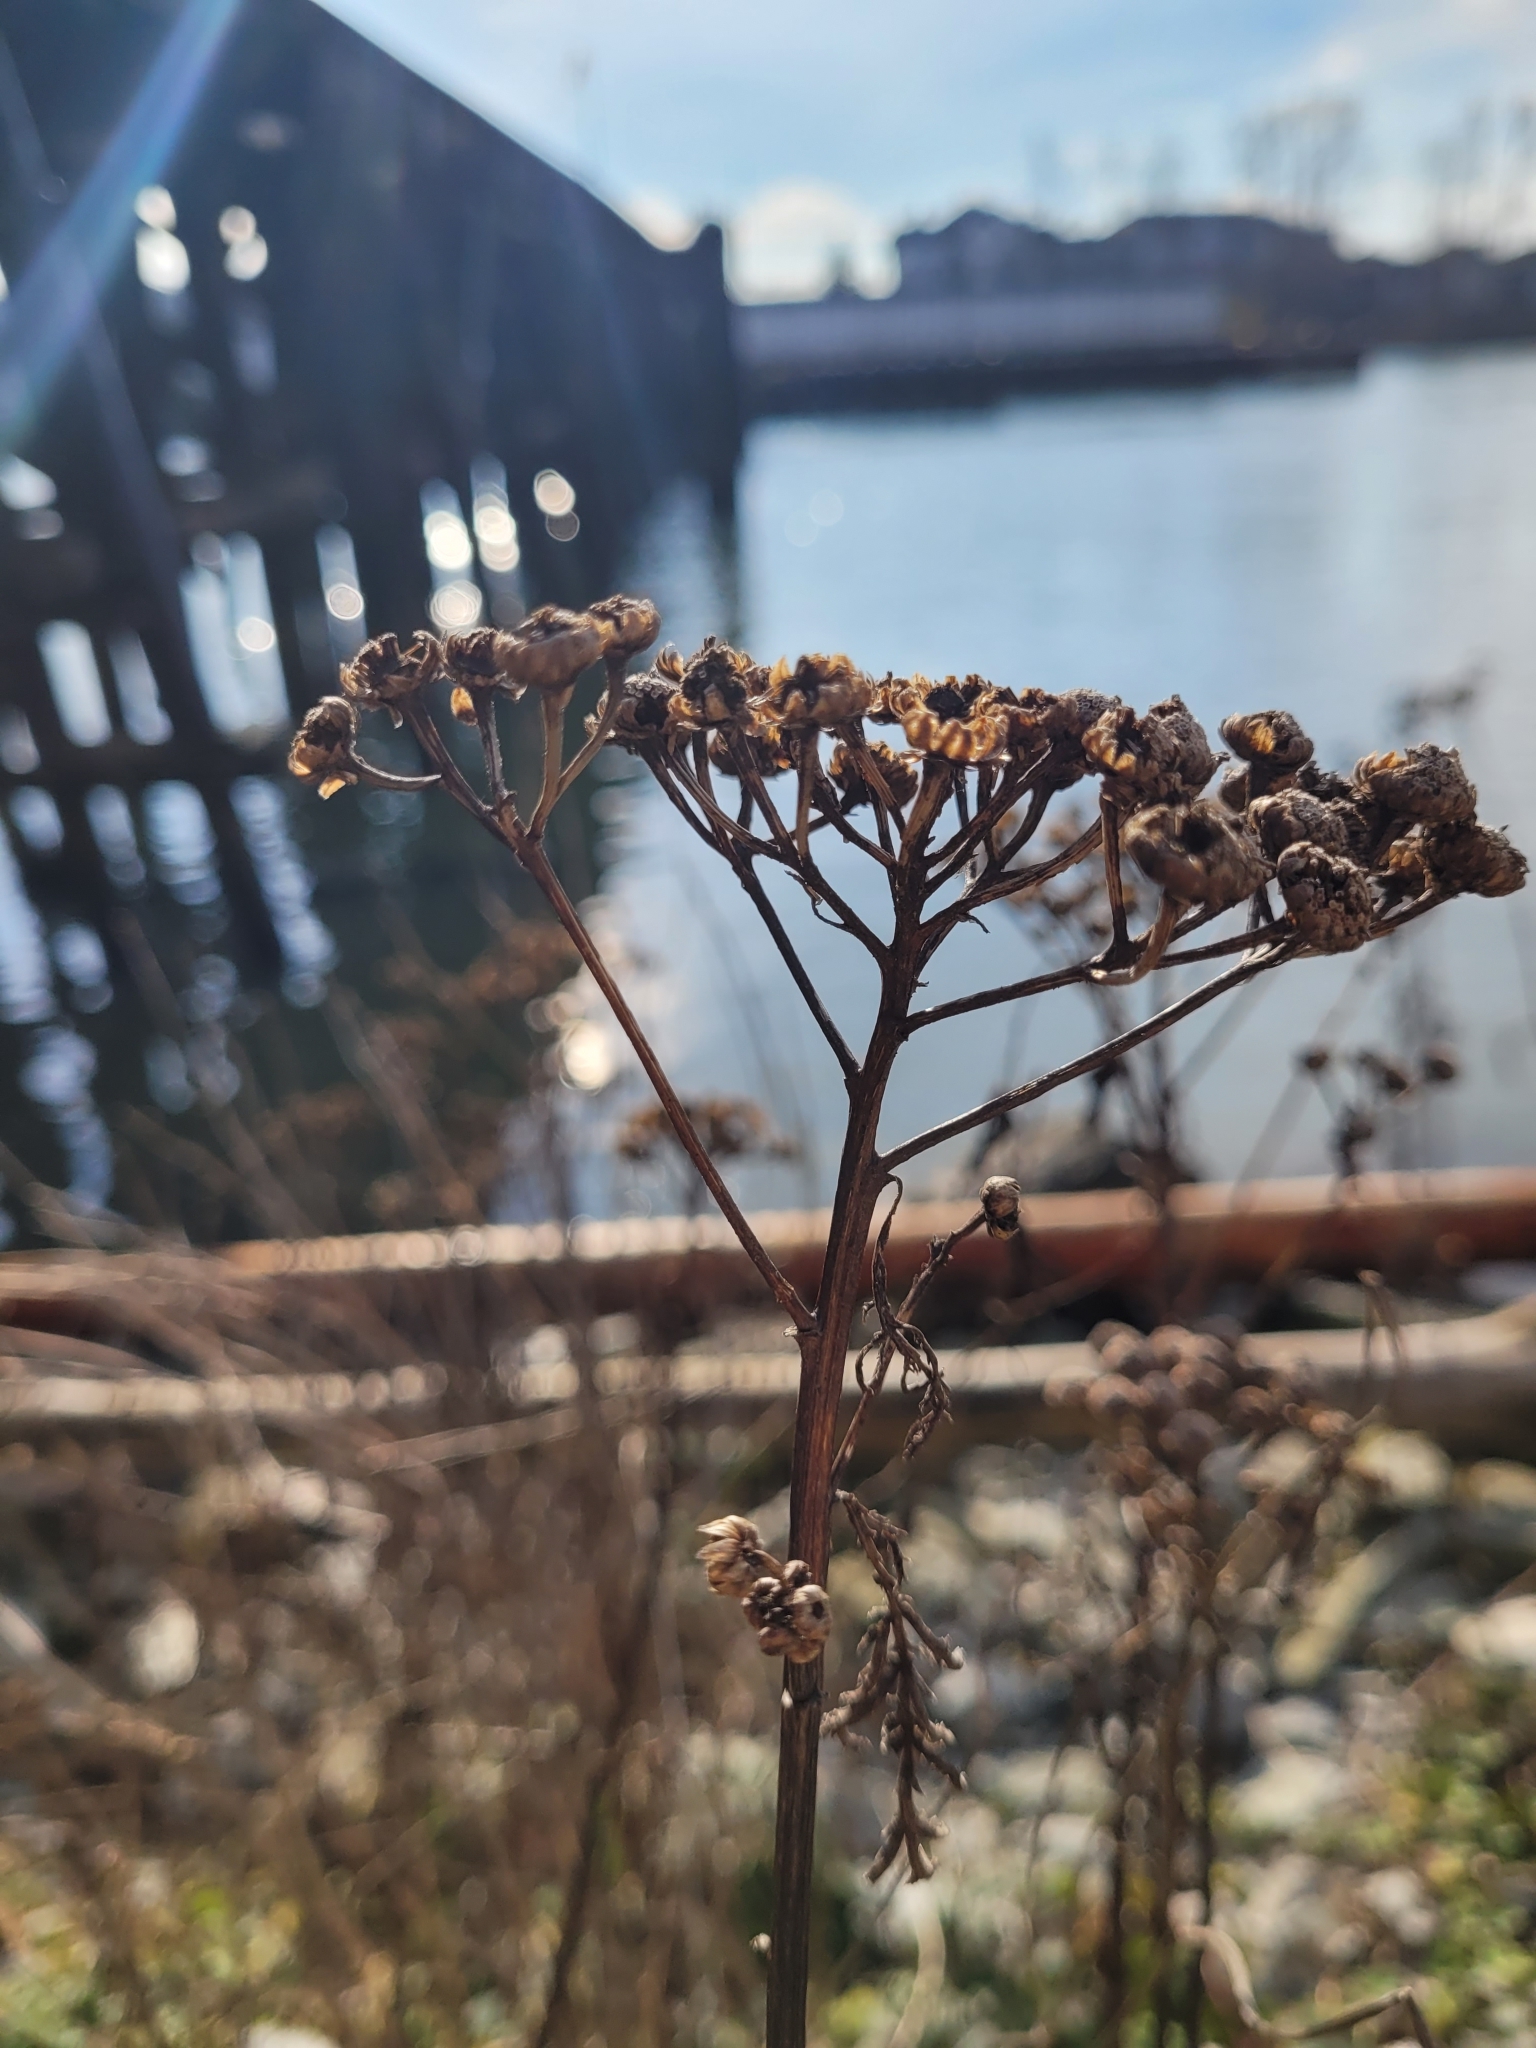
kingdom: Plantae
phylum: Tracheophyta
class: Magnoliopsida
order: Asterales
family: Asteraceae
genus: Tanacetum
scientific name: Tanacetum vulgare
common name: Common tansy
